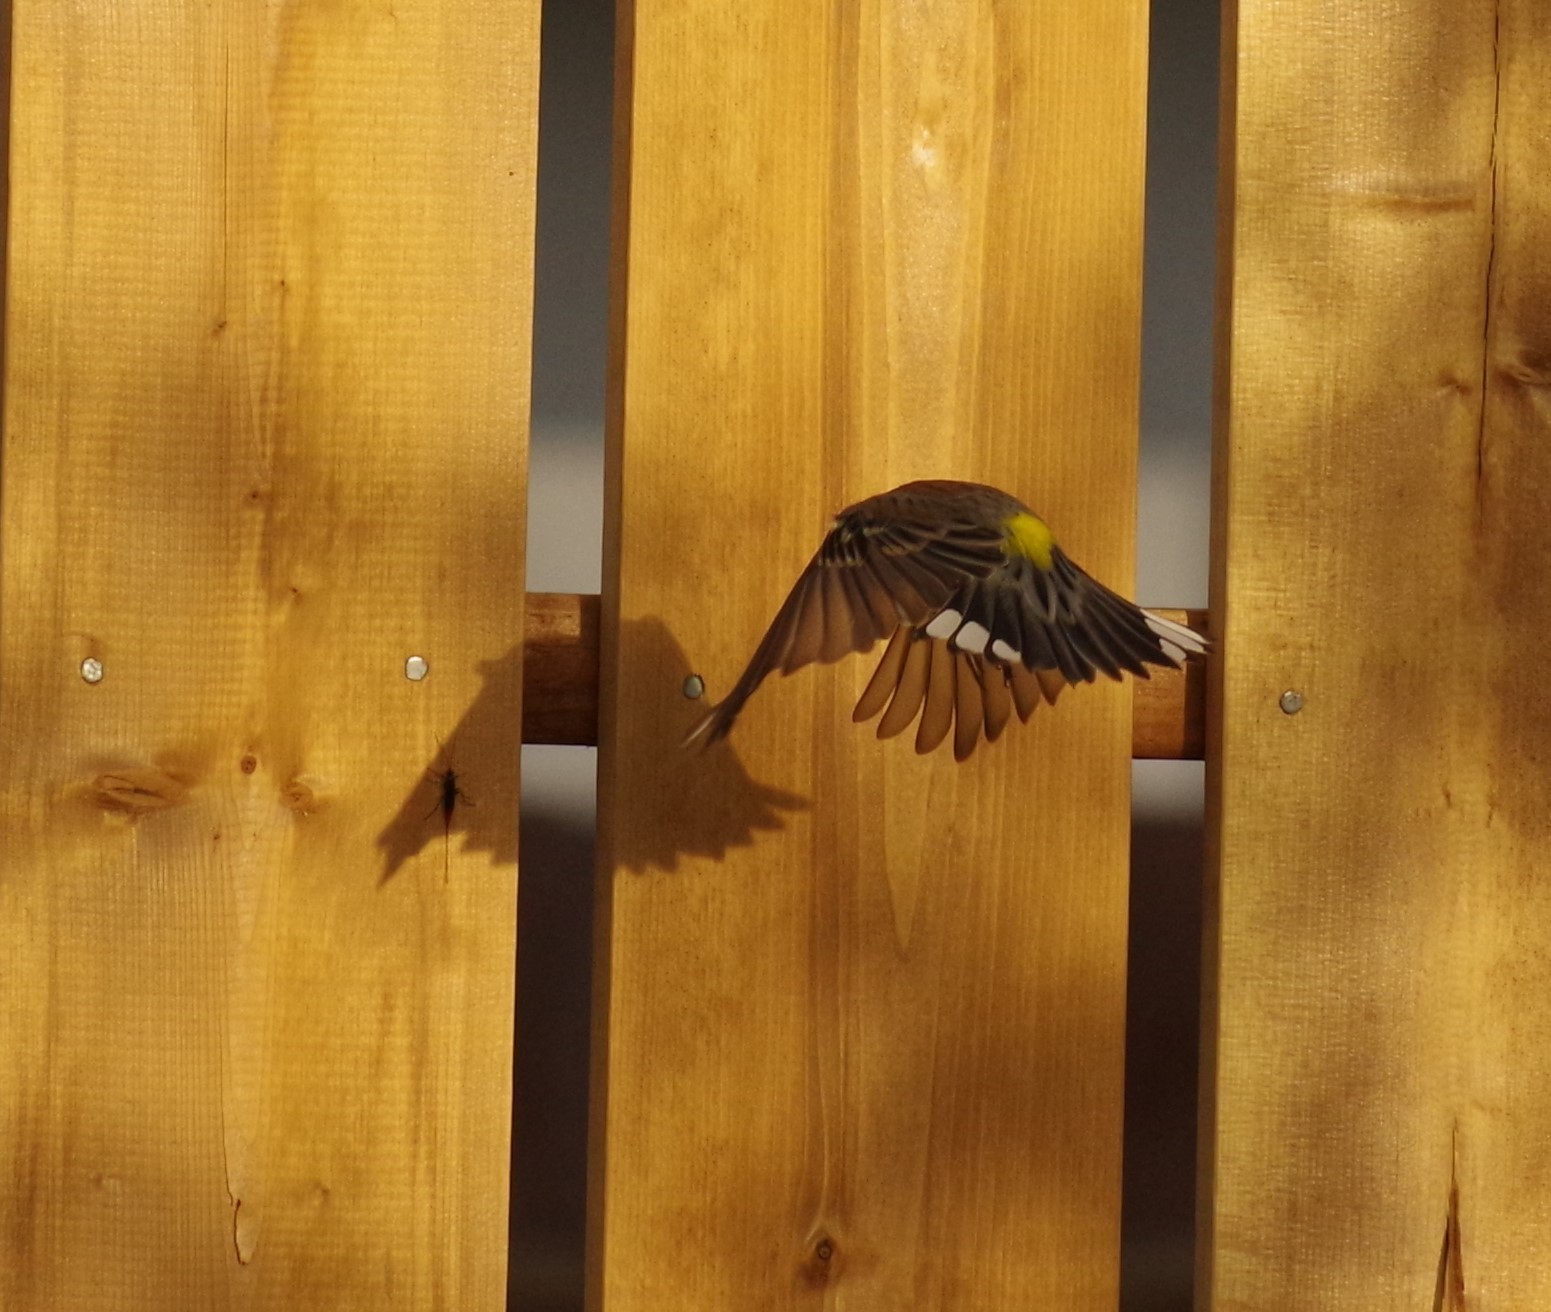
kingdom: Animalia
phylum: Chordata
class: Aves
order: Passeriformes
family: Parulidae
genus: Setophaga
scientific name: Setophaga coronata
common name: Myrtle warbler
